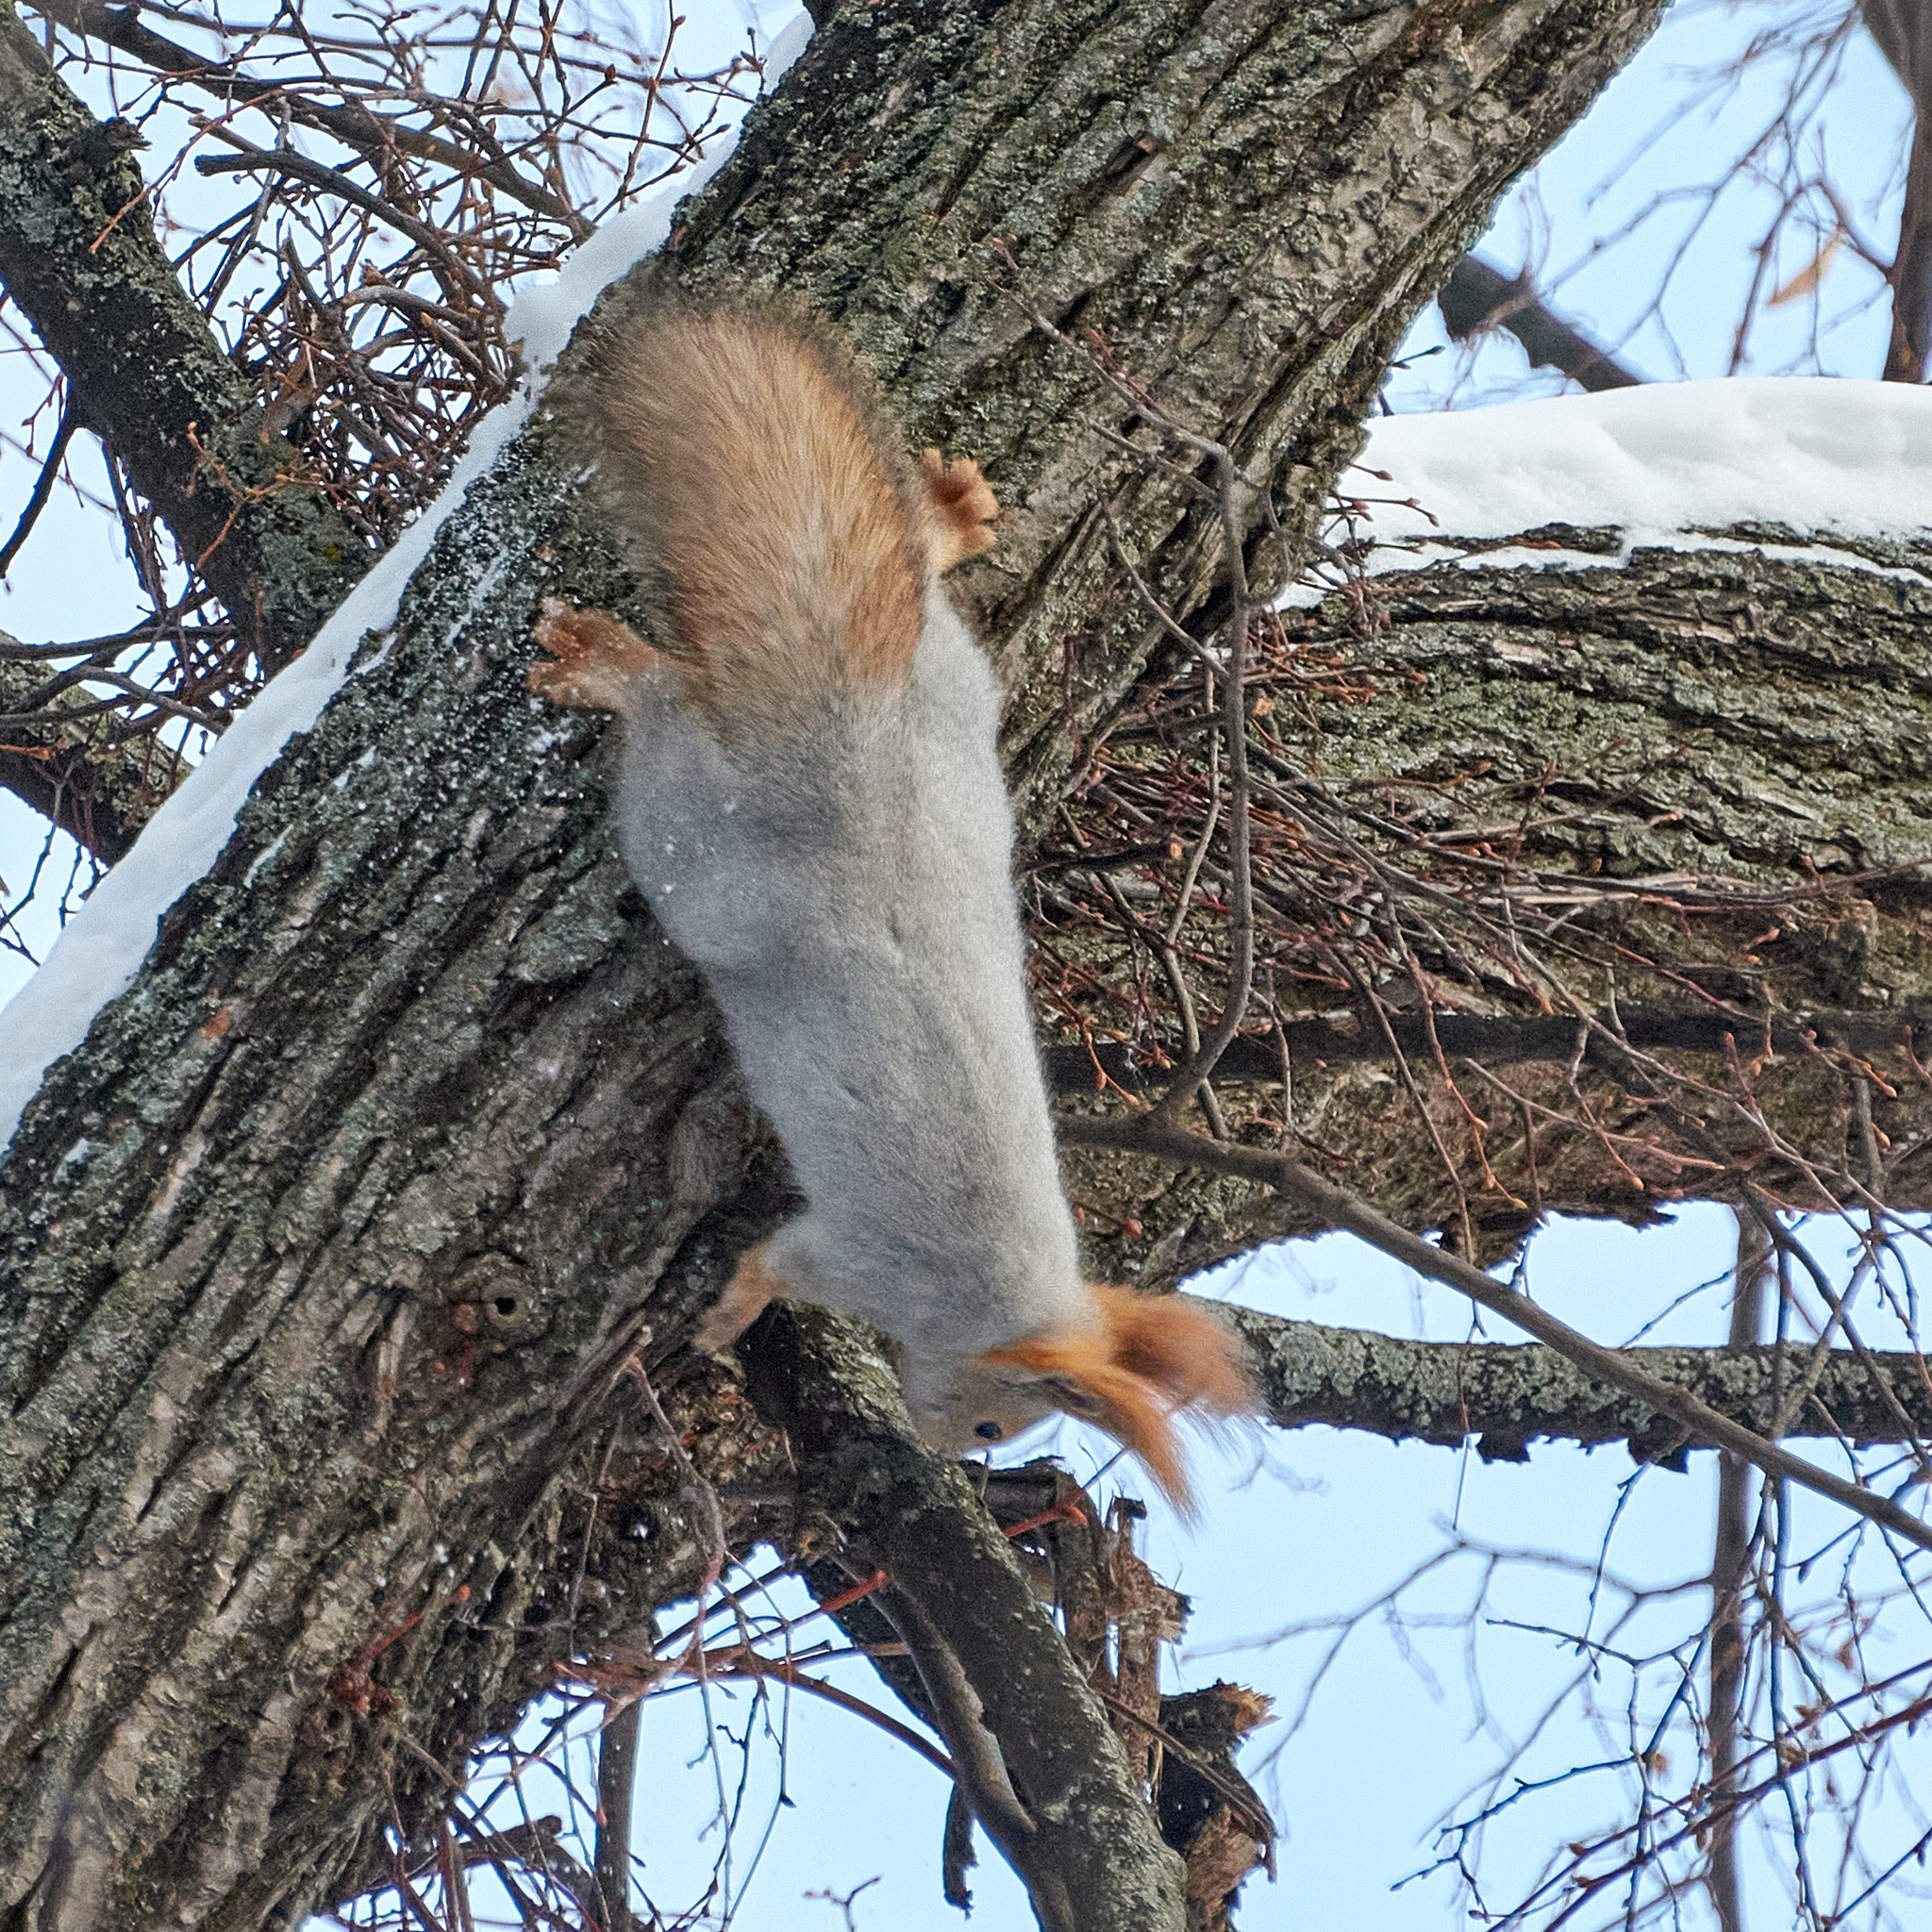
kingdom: Animalia
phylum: Chordata
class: Mammalia
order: Rodentia
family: Sciuridae
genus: Sciurus
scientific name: Sciurus vulgaris
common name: Eurasian red squirrel
